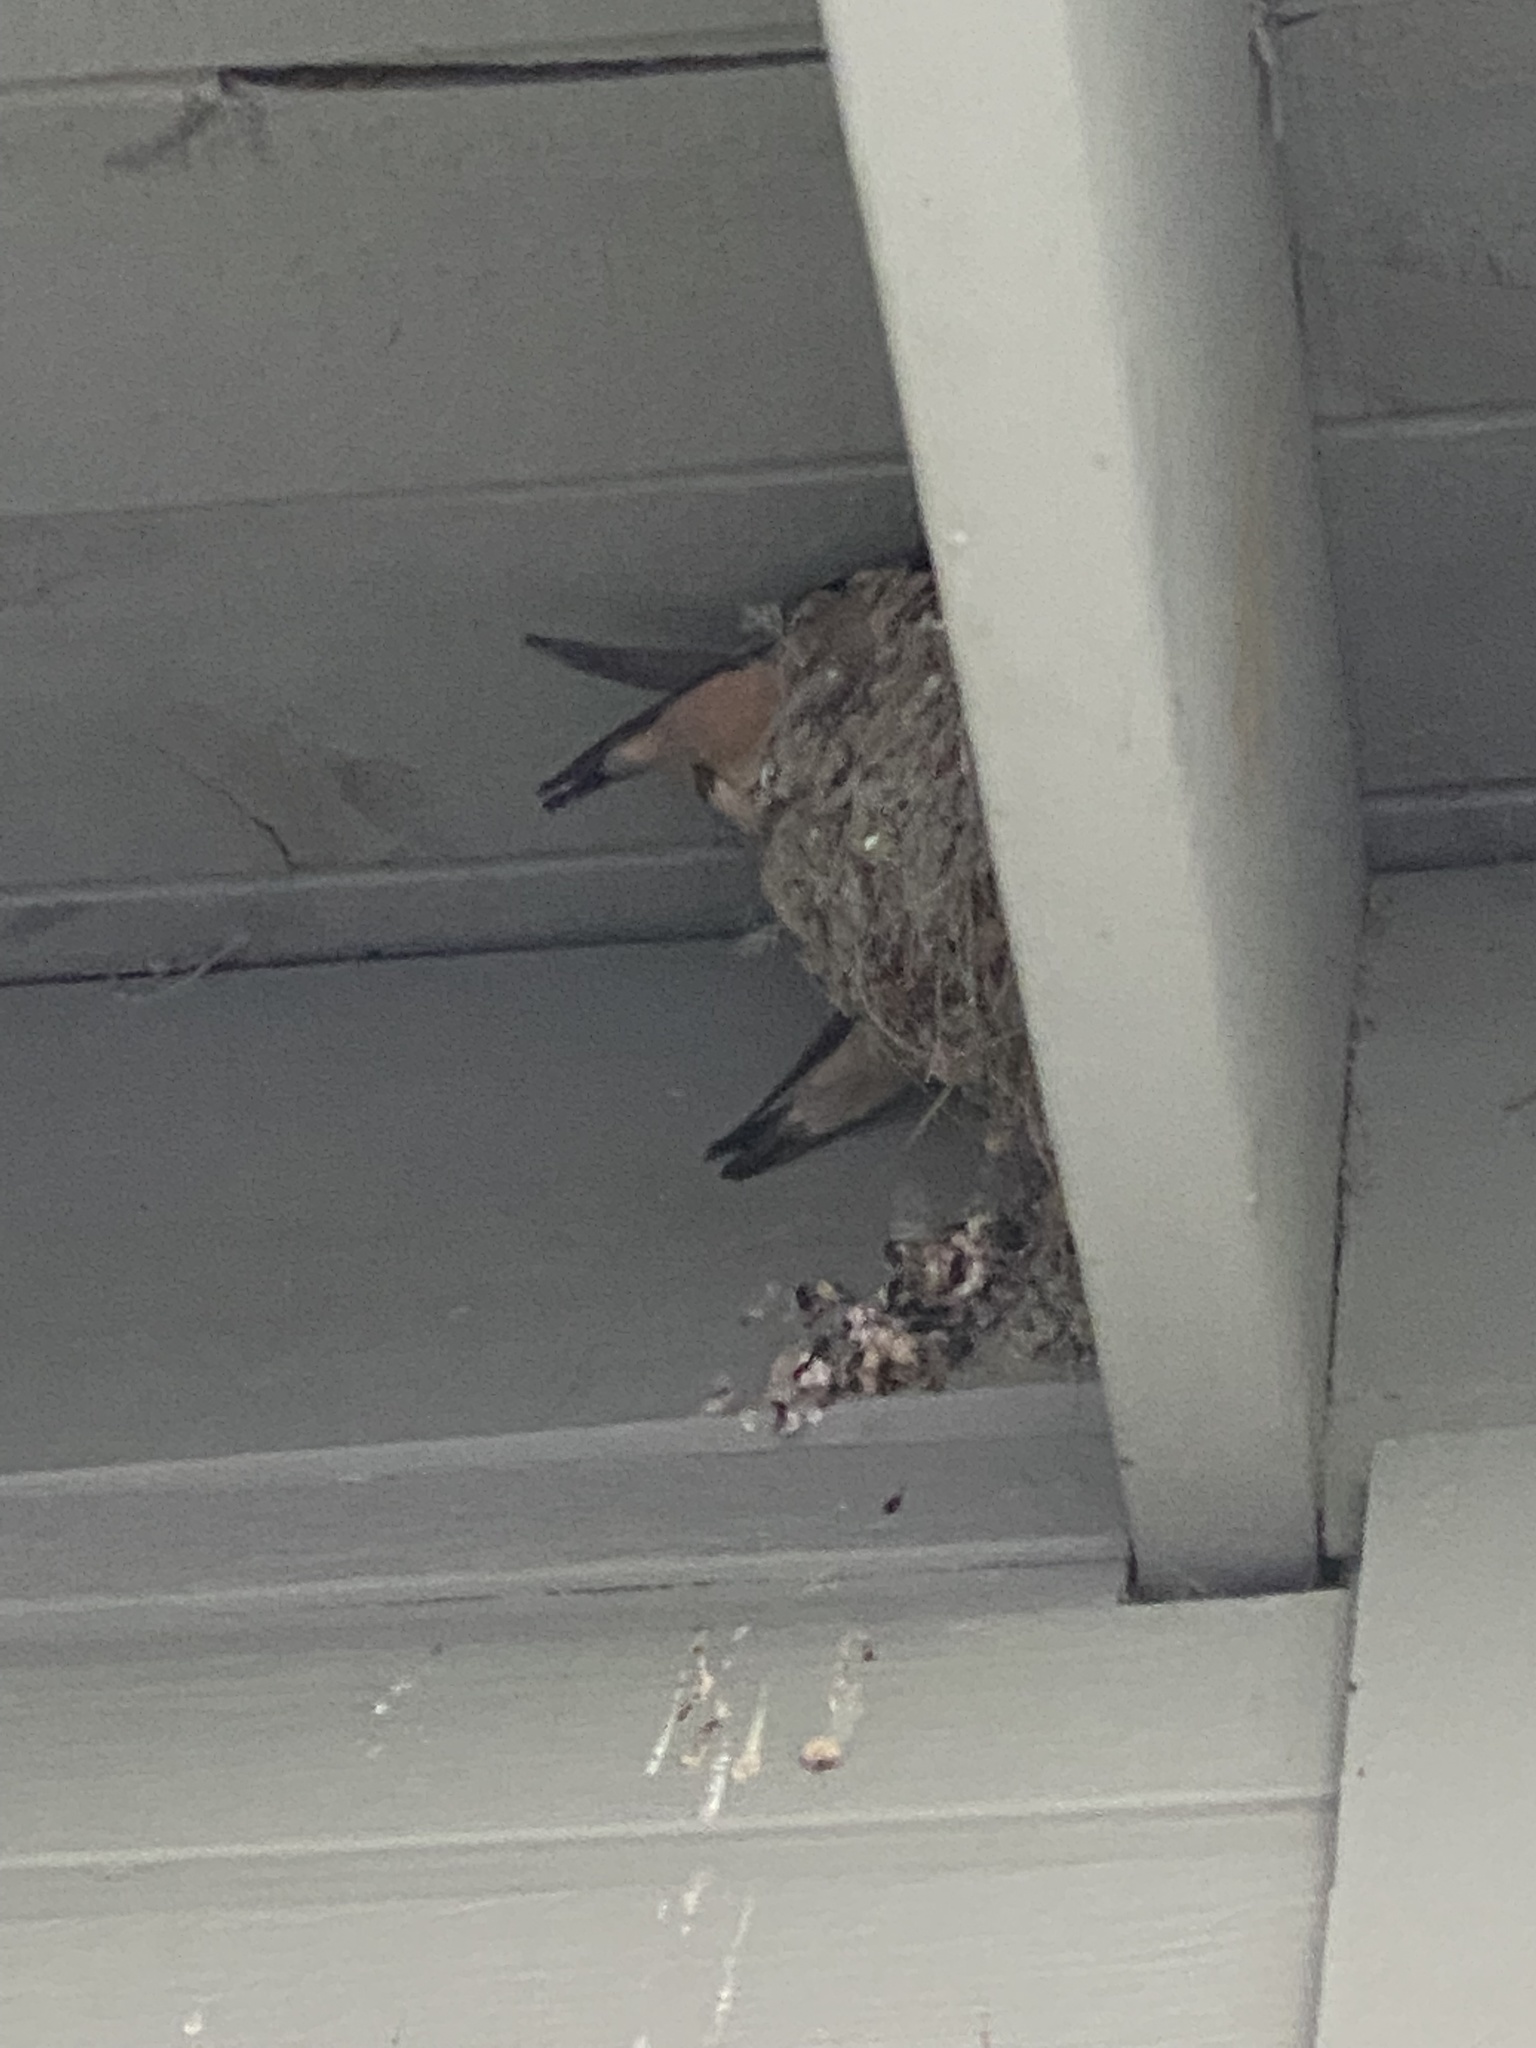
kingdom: Animalia
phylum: Chordata
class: Aves
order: Passeriformes
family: Hirundinidae
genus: Hirundo
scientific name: Hirundo rustica
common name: Barn swallow
